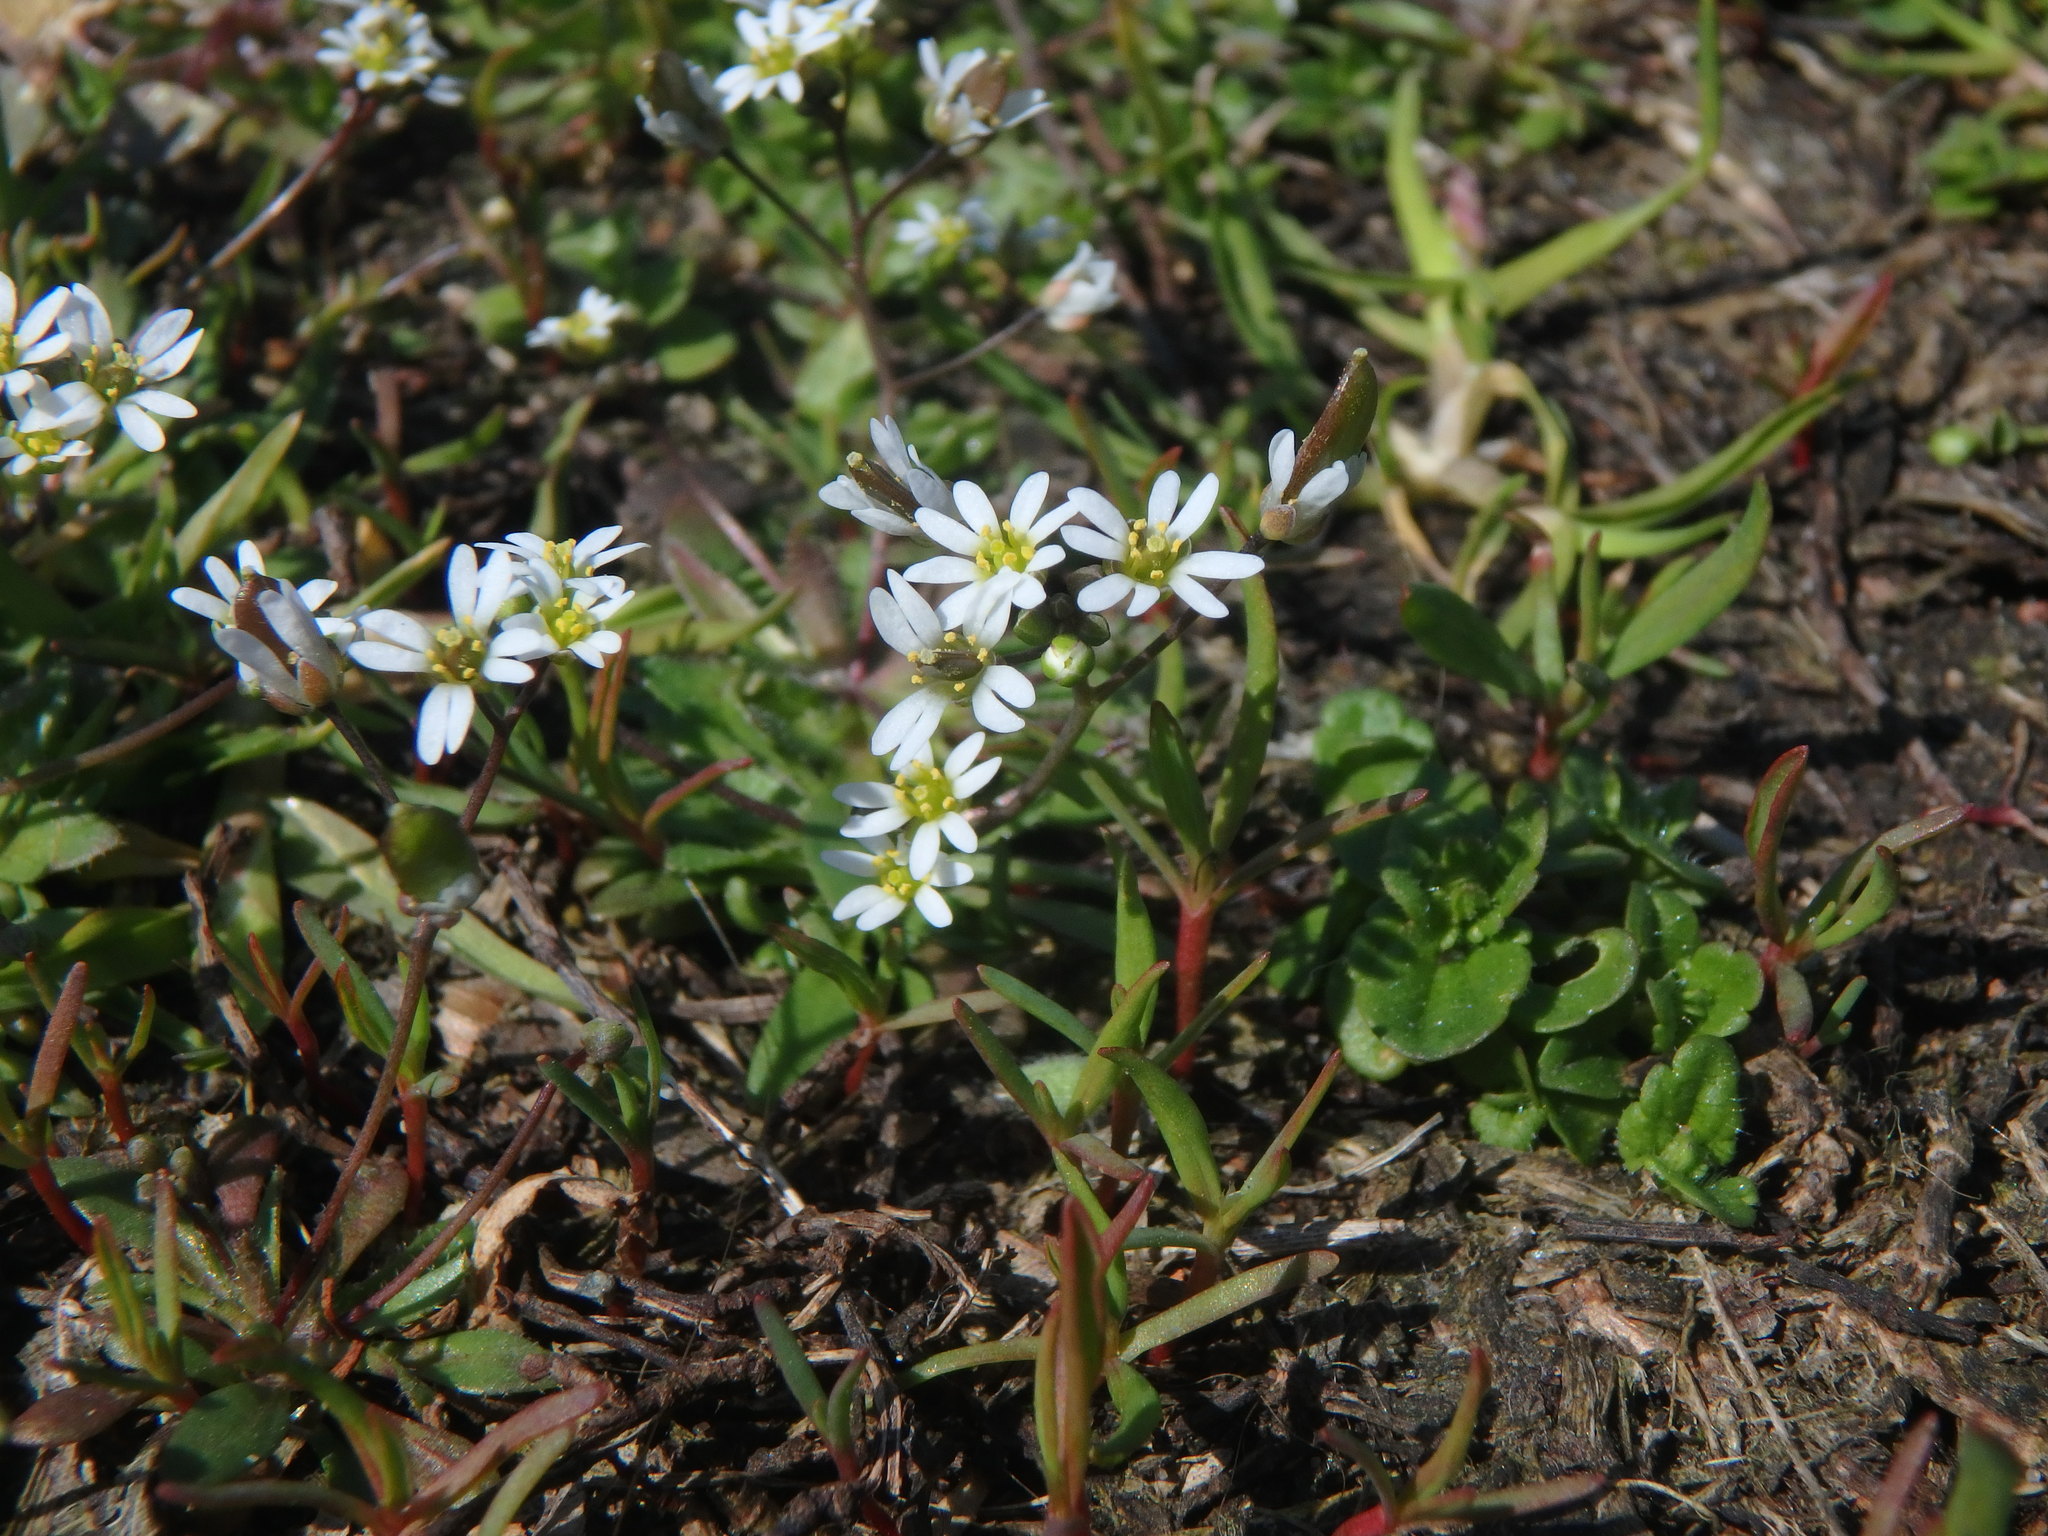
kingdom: Plantae
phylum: Tracheophyta
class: Magnoliopsida
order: Brassicales
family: Brassicaceae
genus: Draba
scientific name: Draba verna
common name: Spring draba
